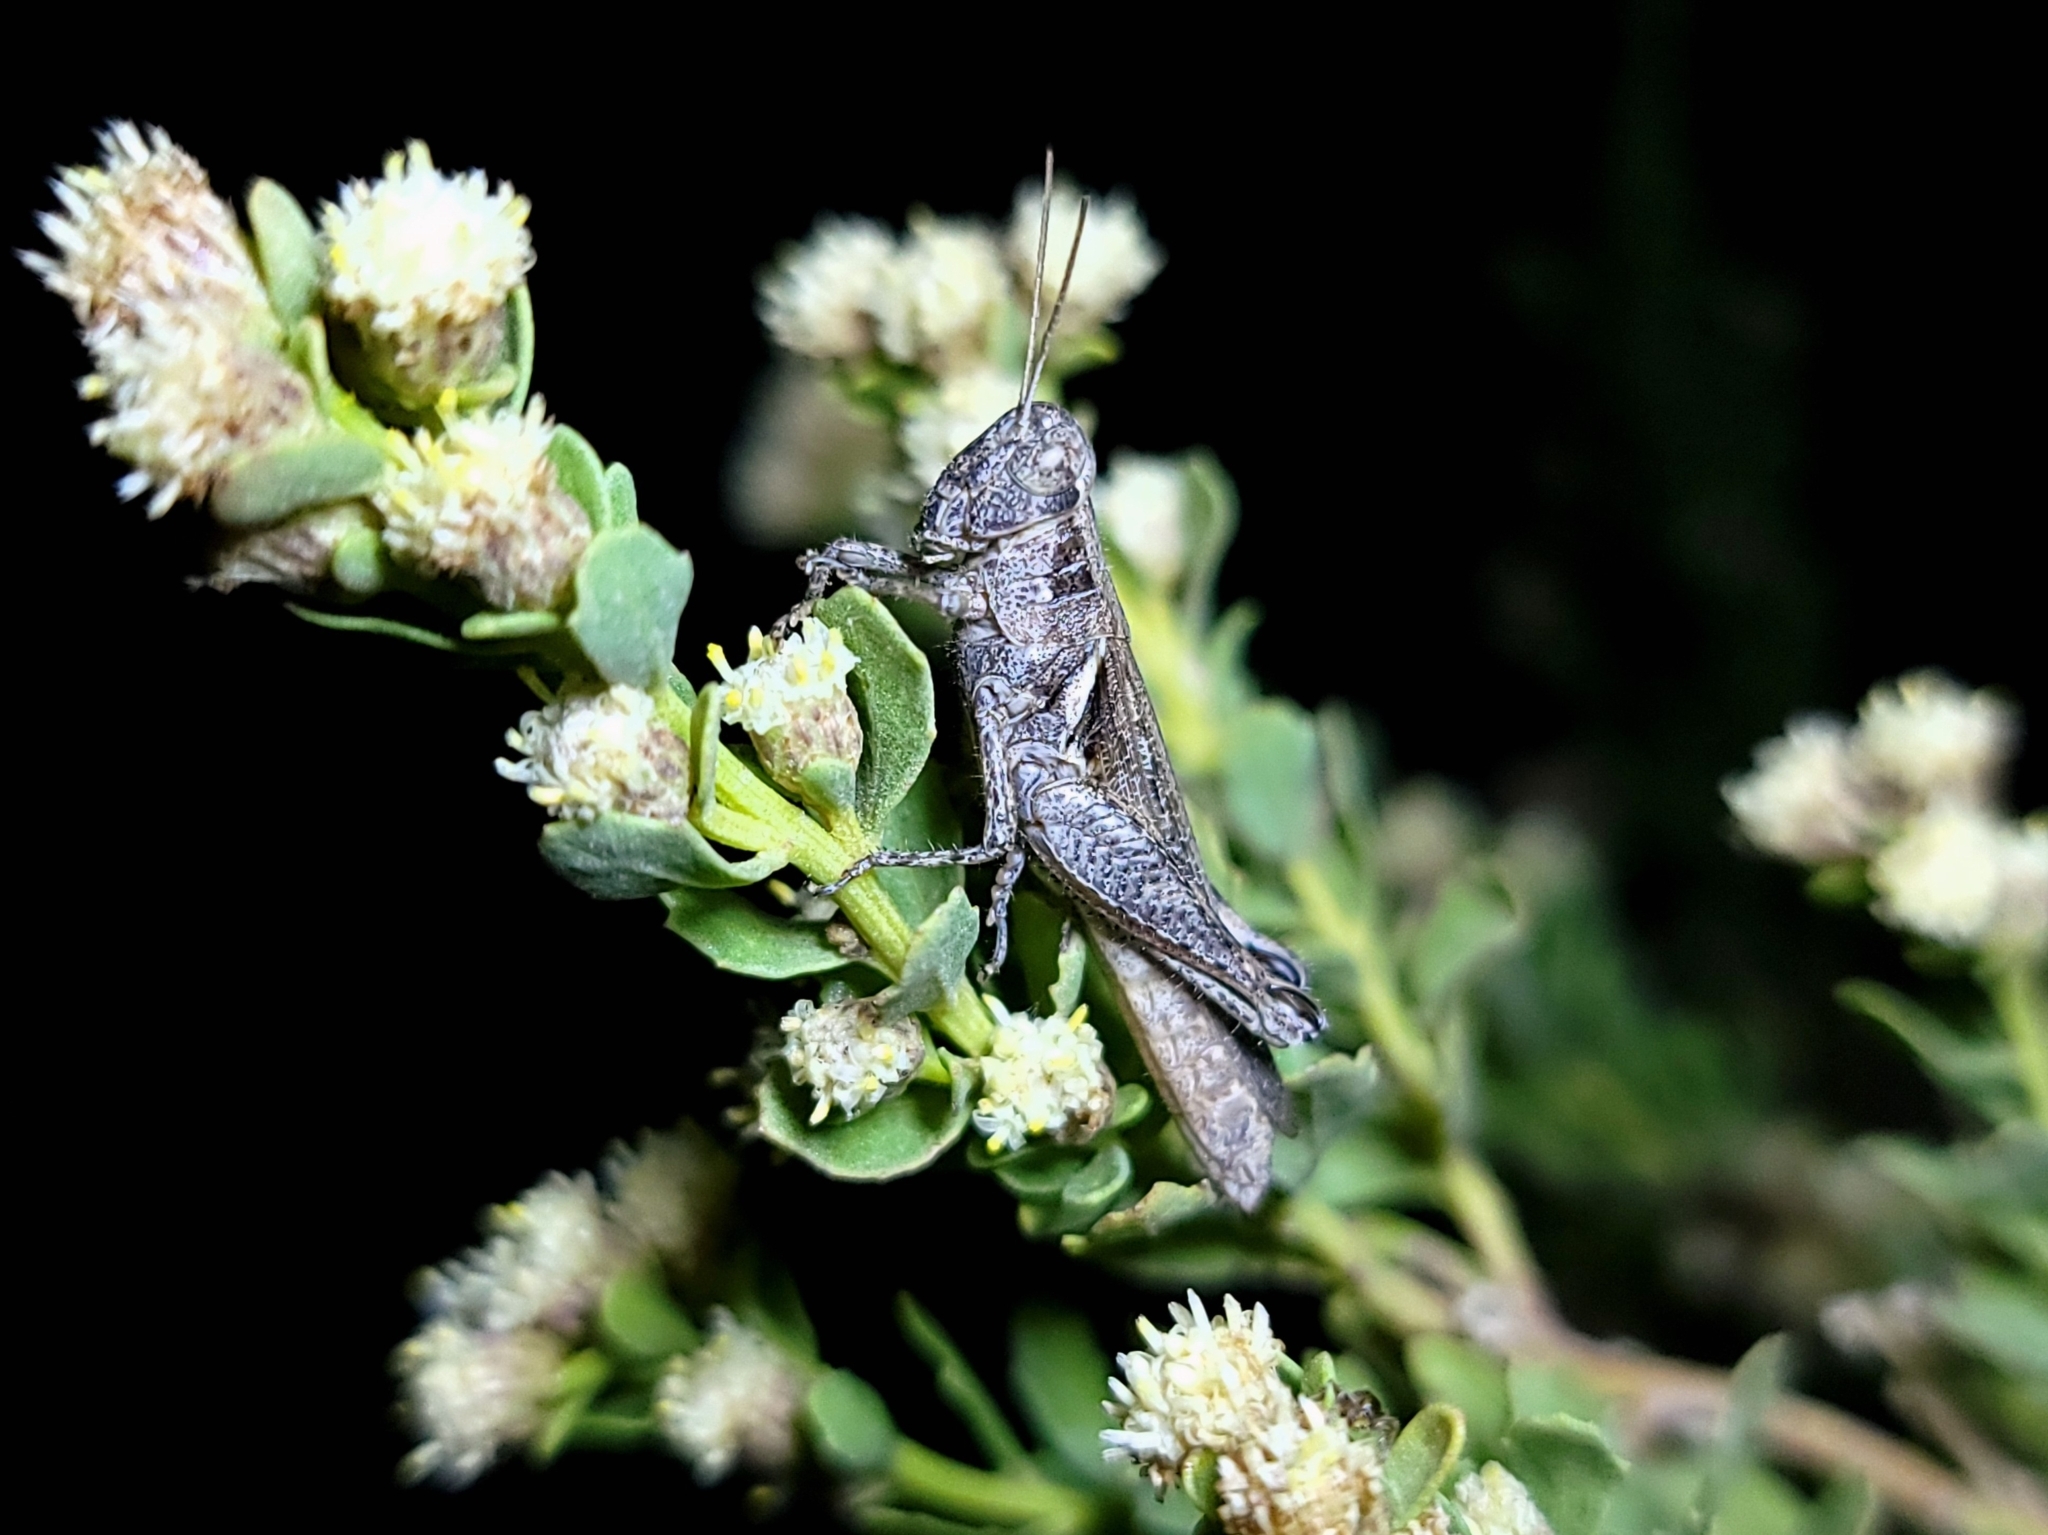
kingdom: Animalia
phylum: Arthropoda
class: Insecta
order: Orthoptera
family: Acrididae
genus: Melanoplus
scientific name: Melanoplus cinereus
